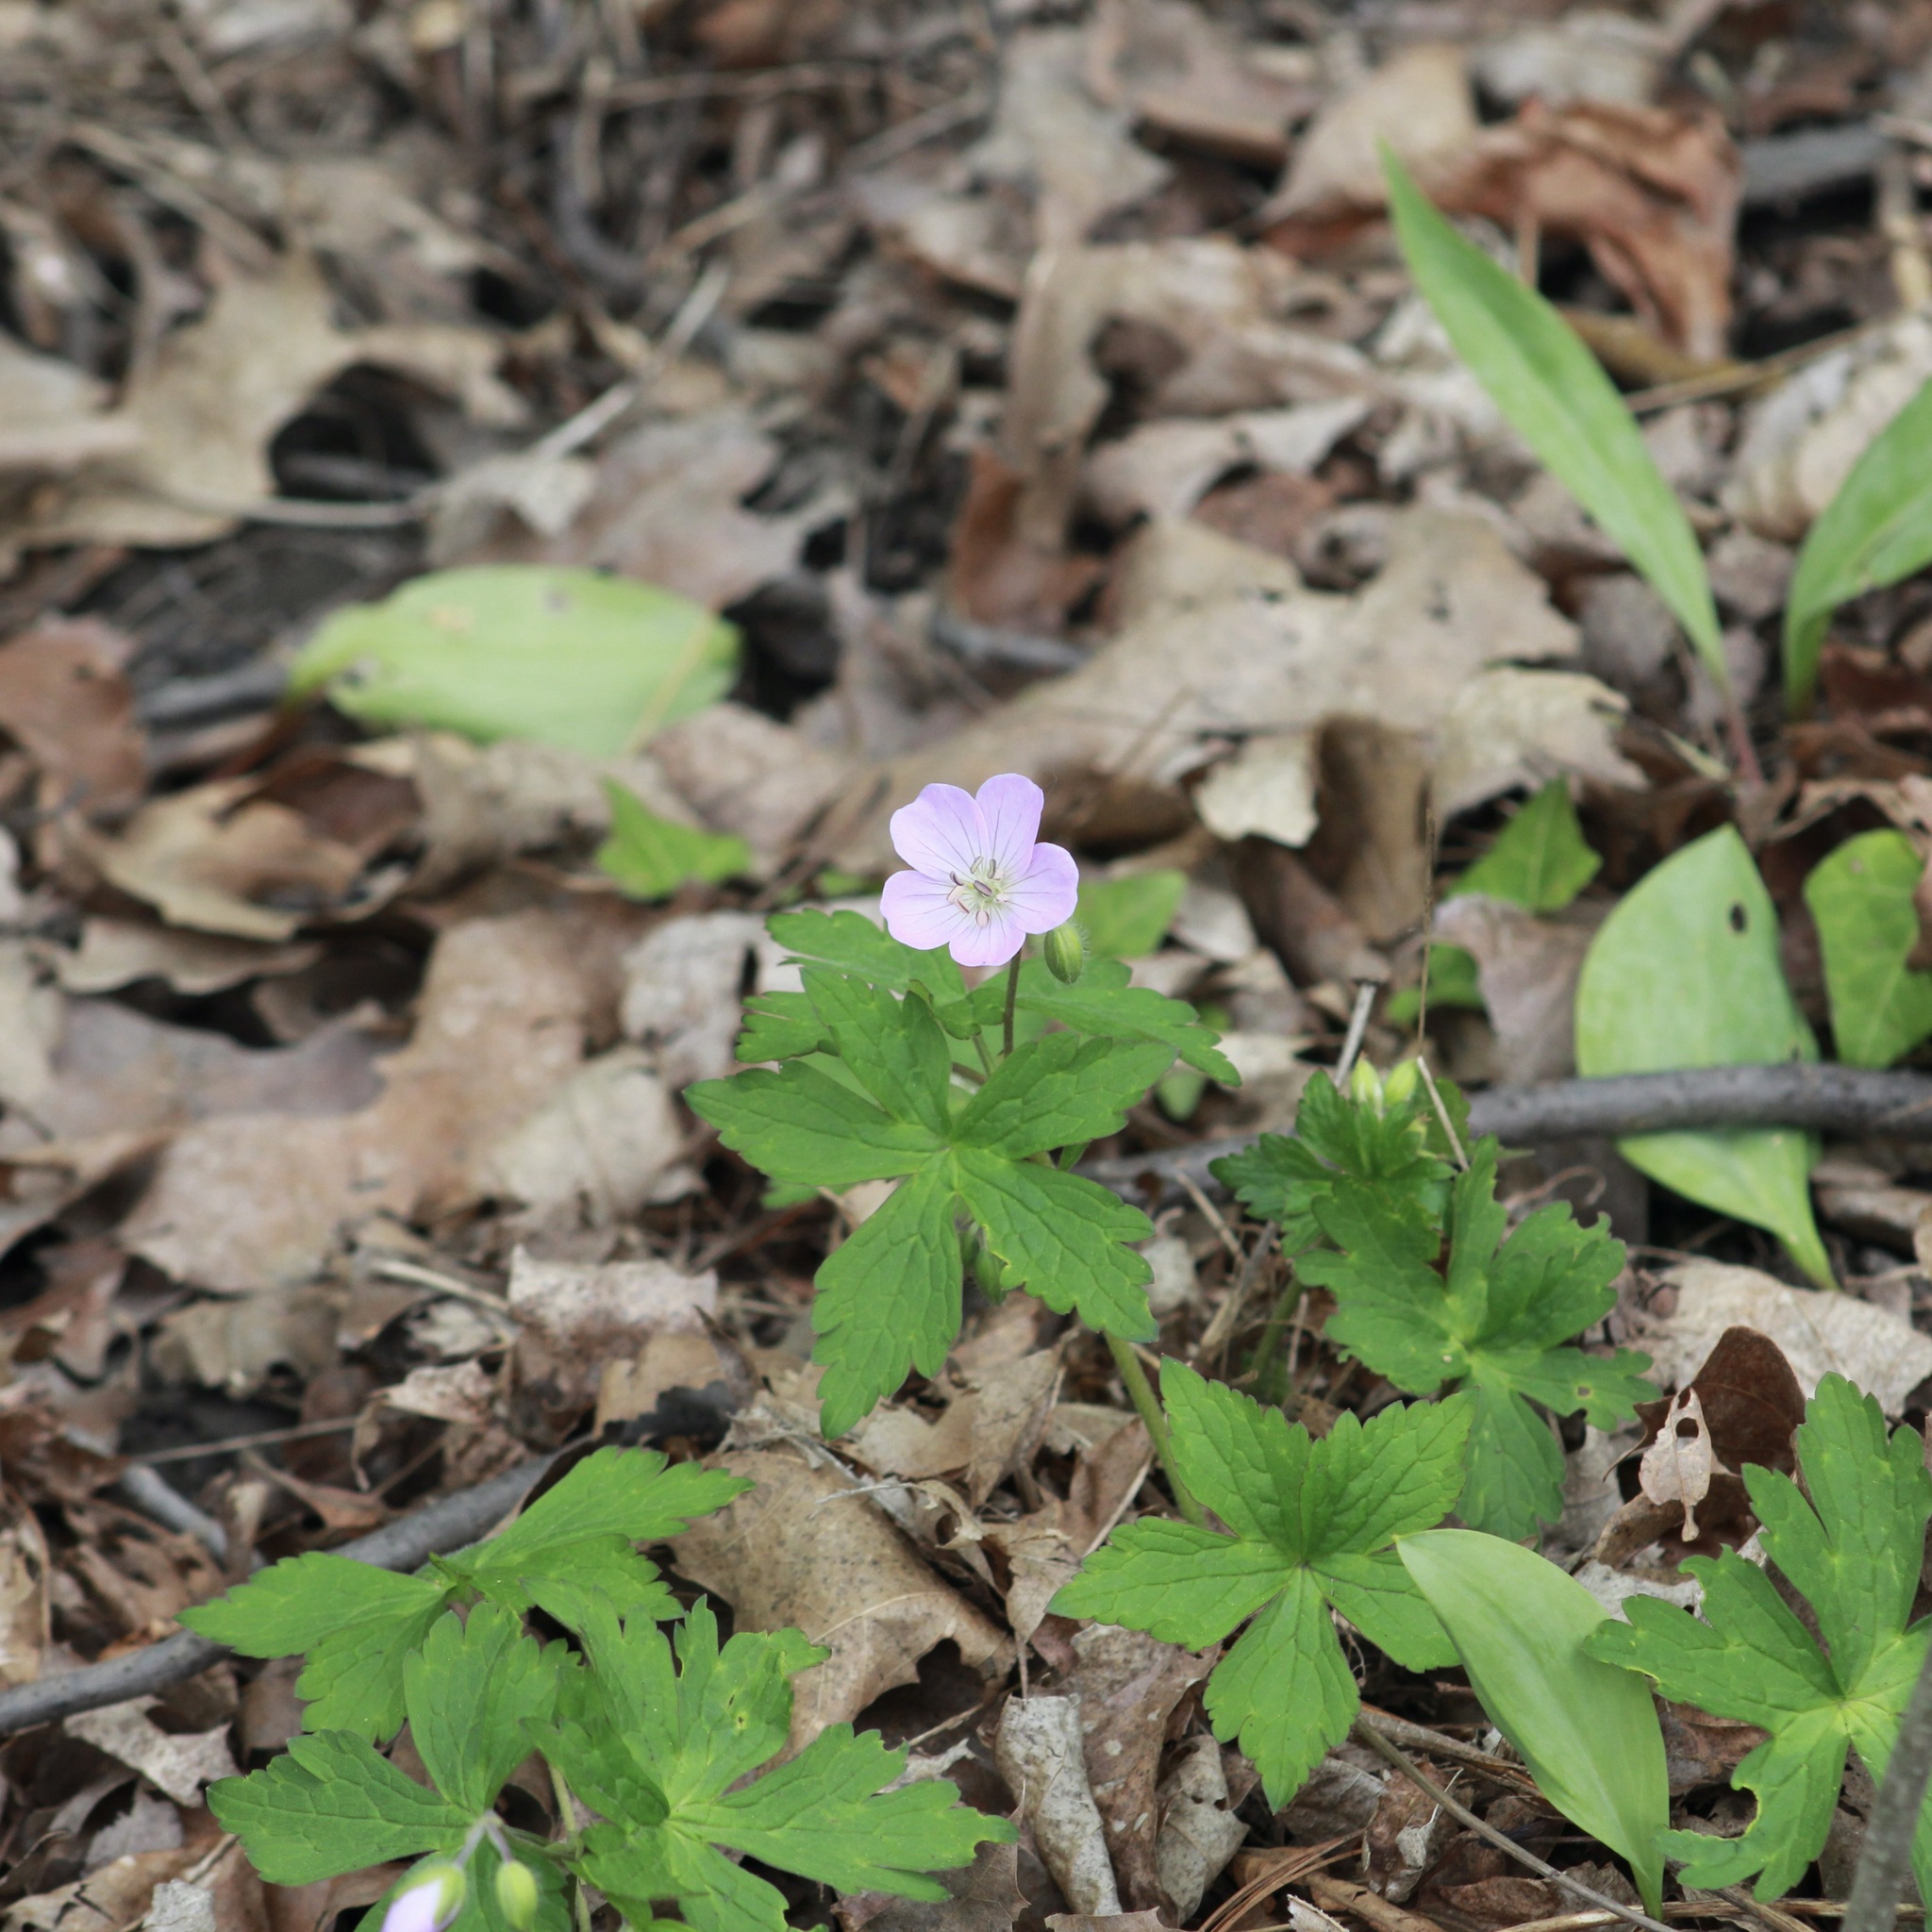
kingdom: Plantae
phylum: Tracheophyta
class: Magnoliopsida
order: Geraniales
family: Geraniaceae
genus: Geranium
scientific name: Geranium maculatum
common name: Spotted geranium
